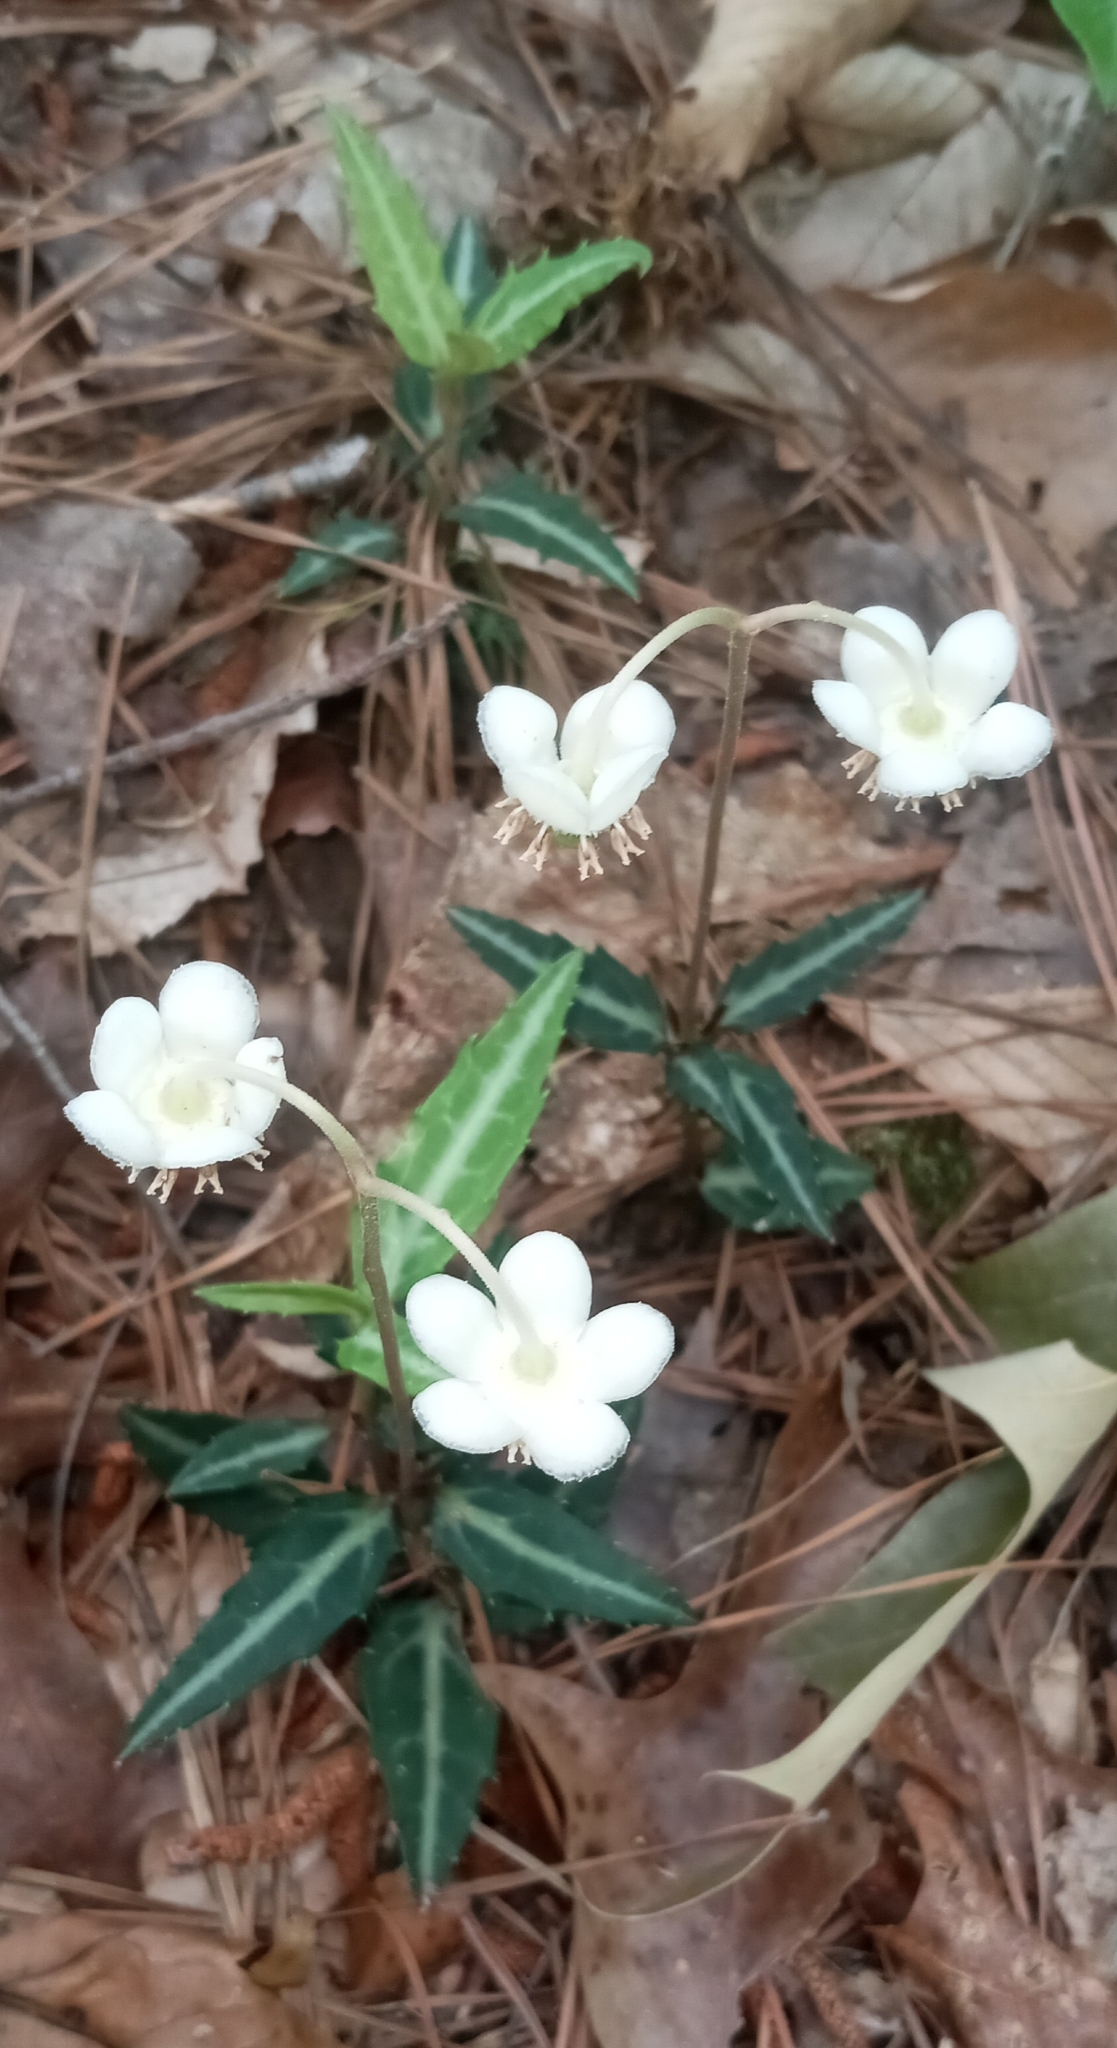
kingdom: Plantae
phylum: Tracheophyta
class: Magnoliopsida
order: Ericales
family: Ericaceae
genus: Chimaphila
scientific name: Chimaphila maculata
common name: Spotted pipsissewa
